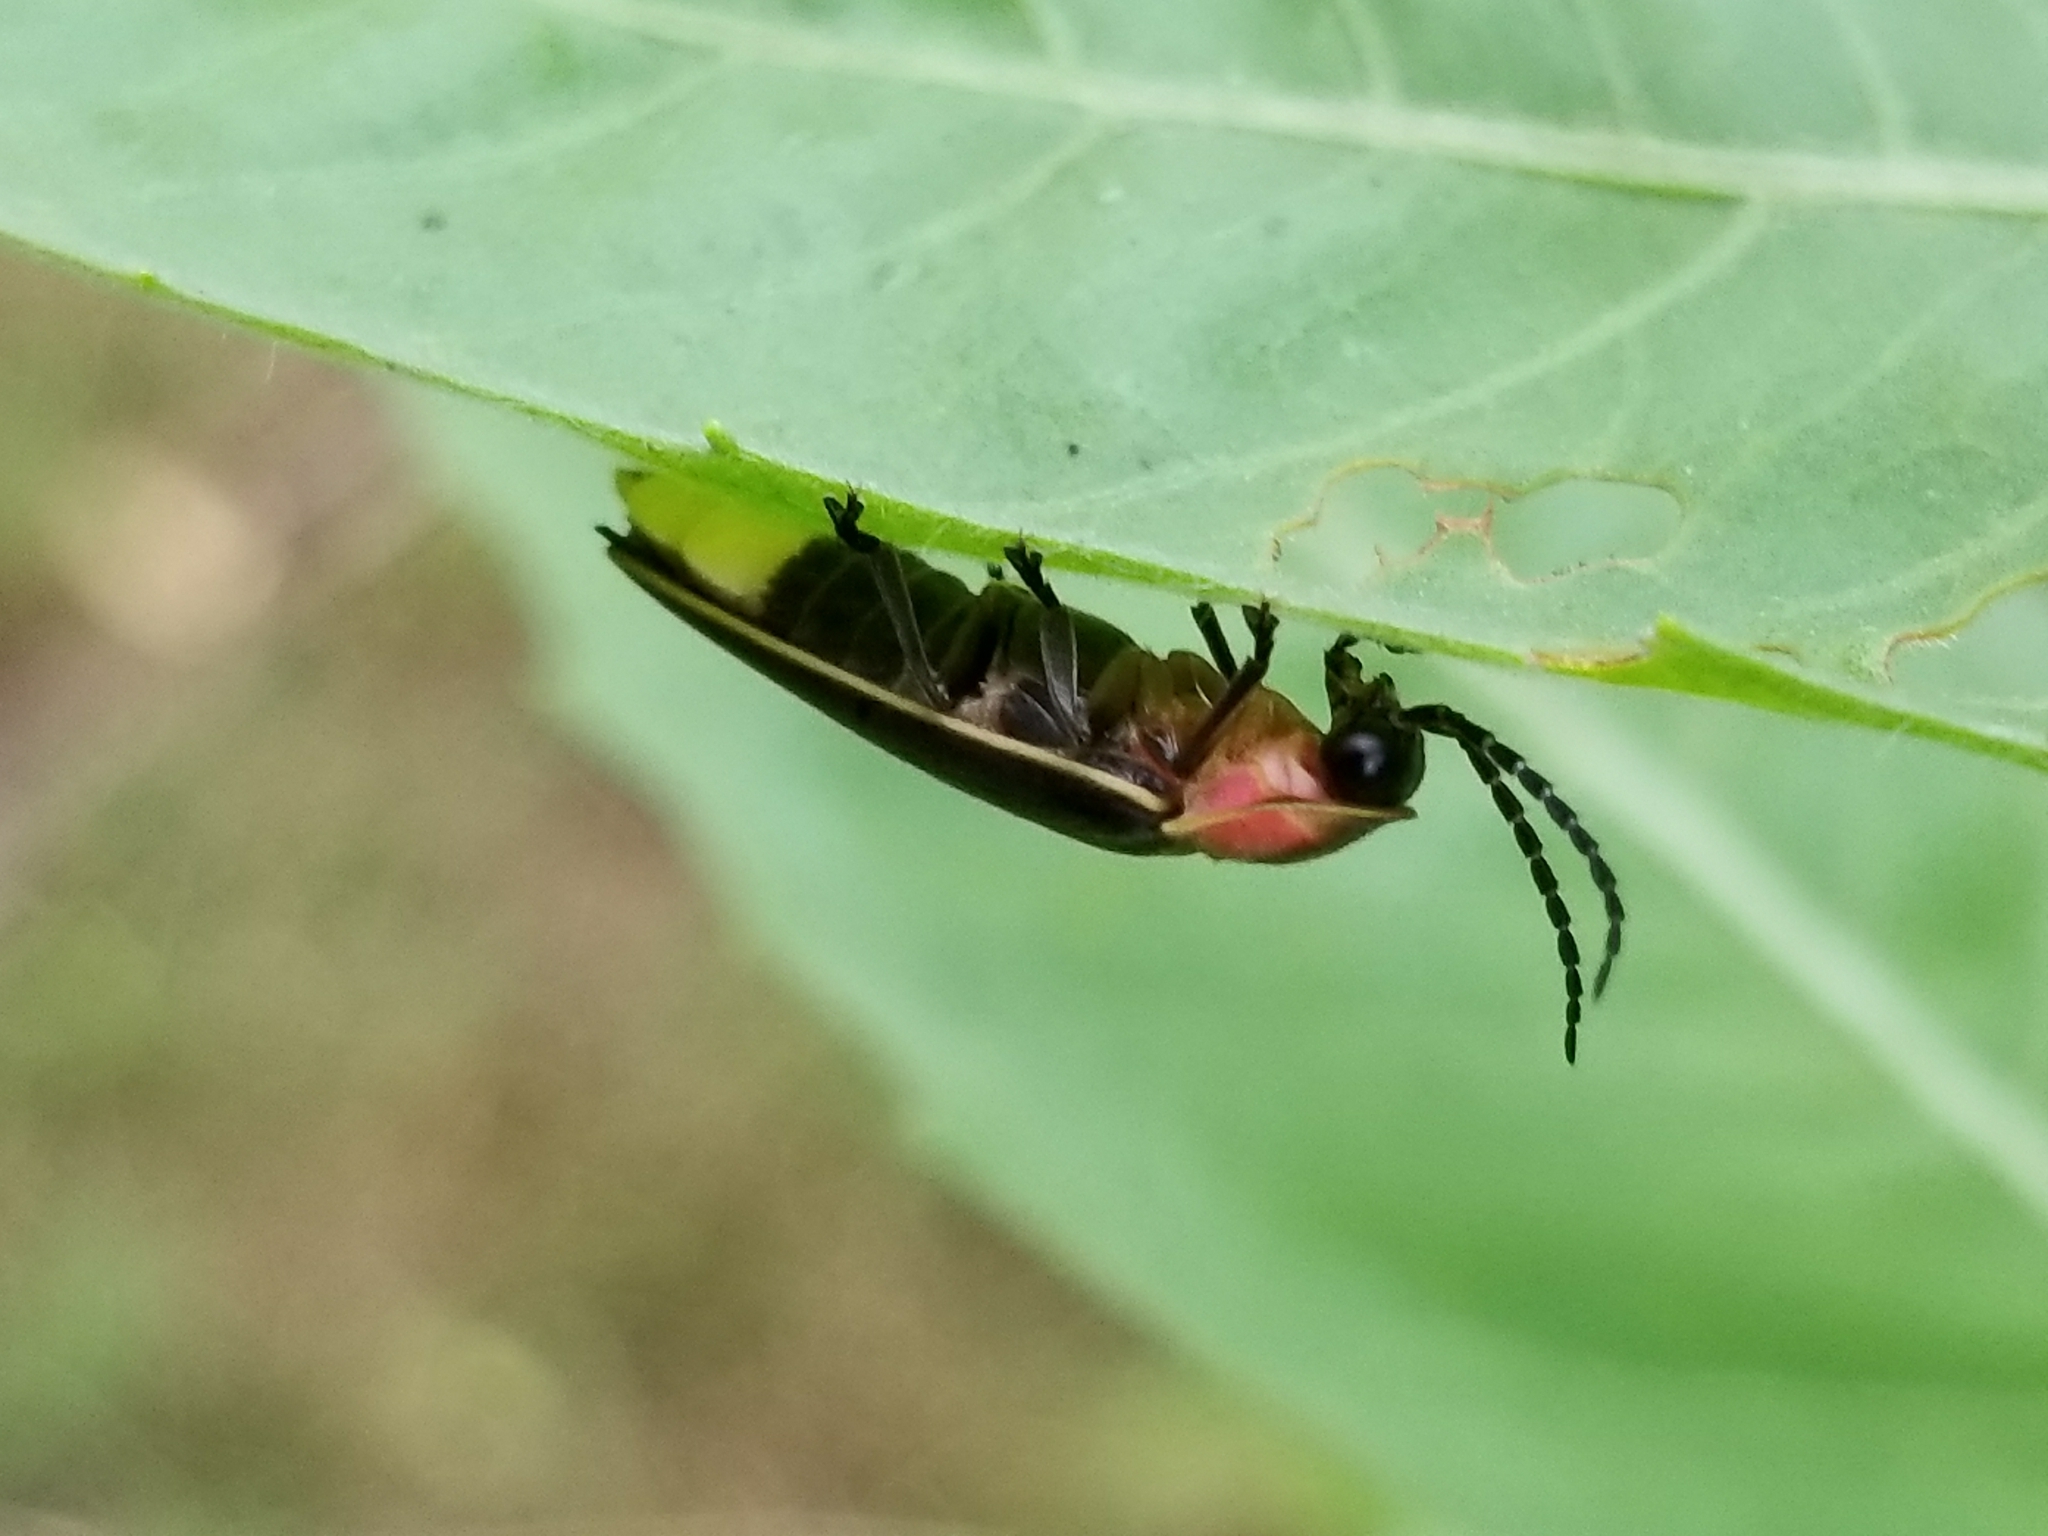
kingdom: Animalia
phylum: Arthropoda
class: Insecta
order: Coleoptera
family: Lampyridae
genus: Photinus
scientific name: Photinus pyralis
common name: Big dipper firefly
